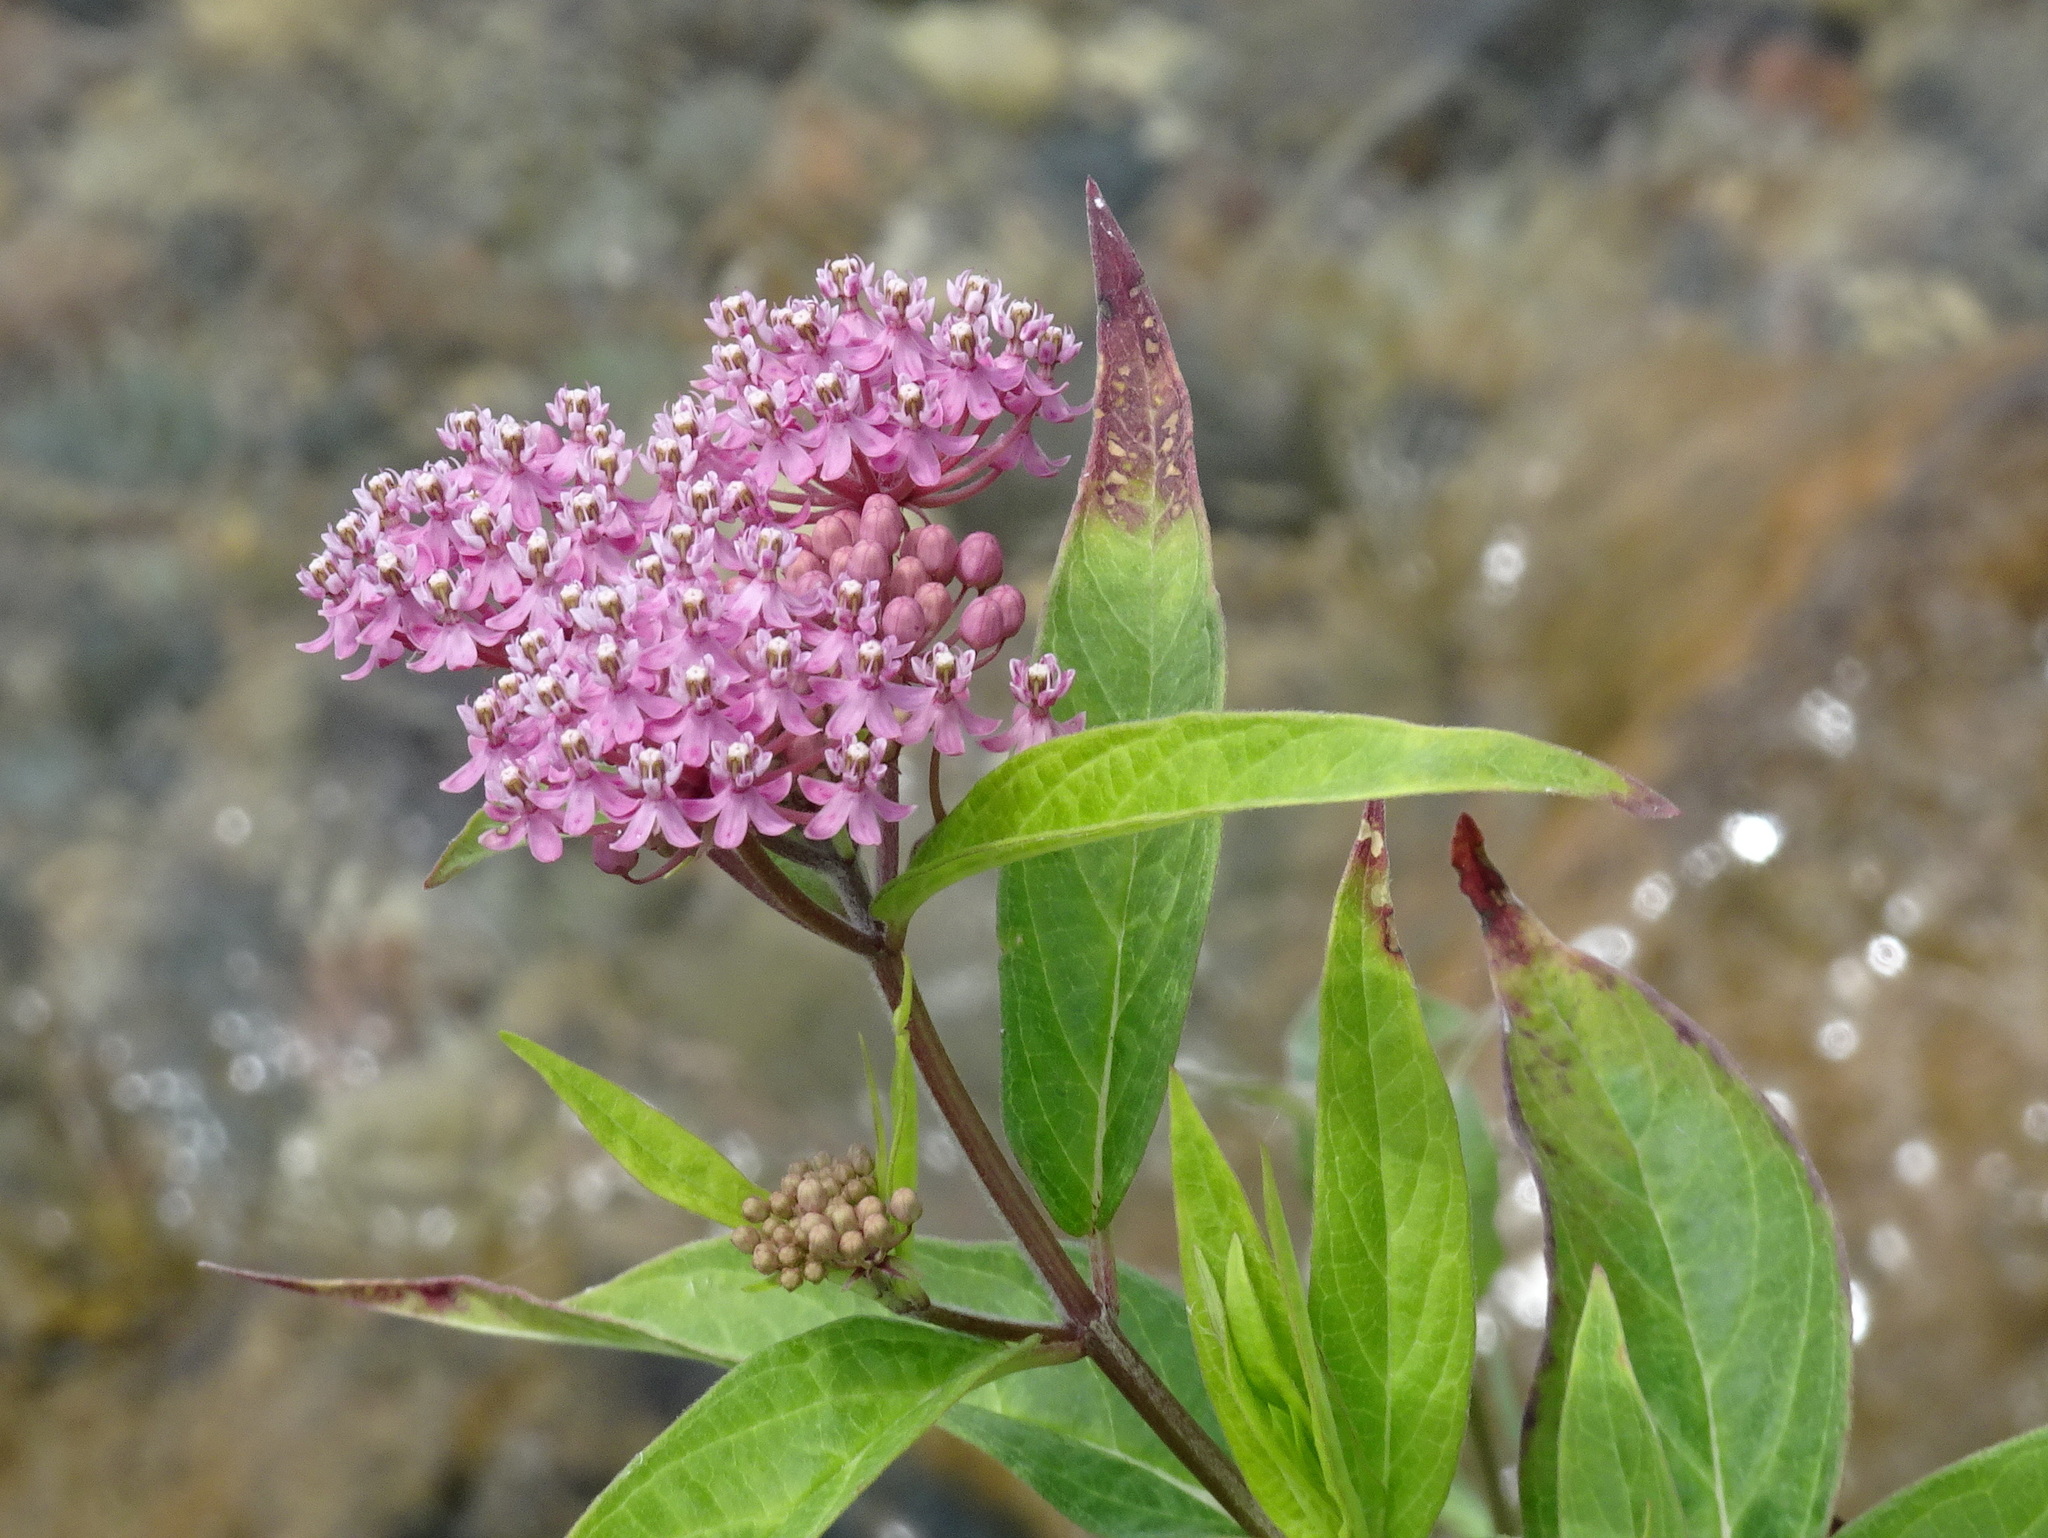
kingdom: Plantae
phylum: Tracheophyta
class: Magnoliopsida
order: Gentianales
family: Apocynaceae
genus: Asclepias
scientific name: Asclepias incarnata
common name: Swamp milkweed
